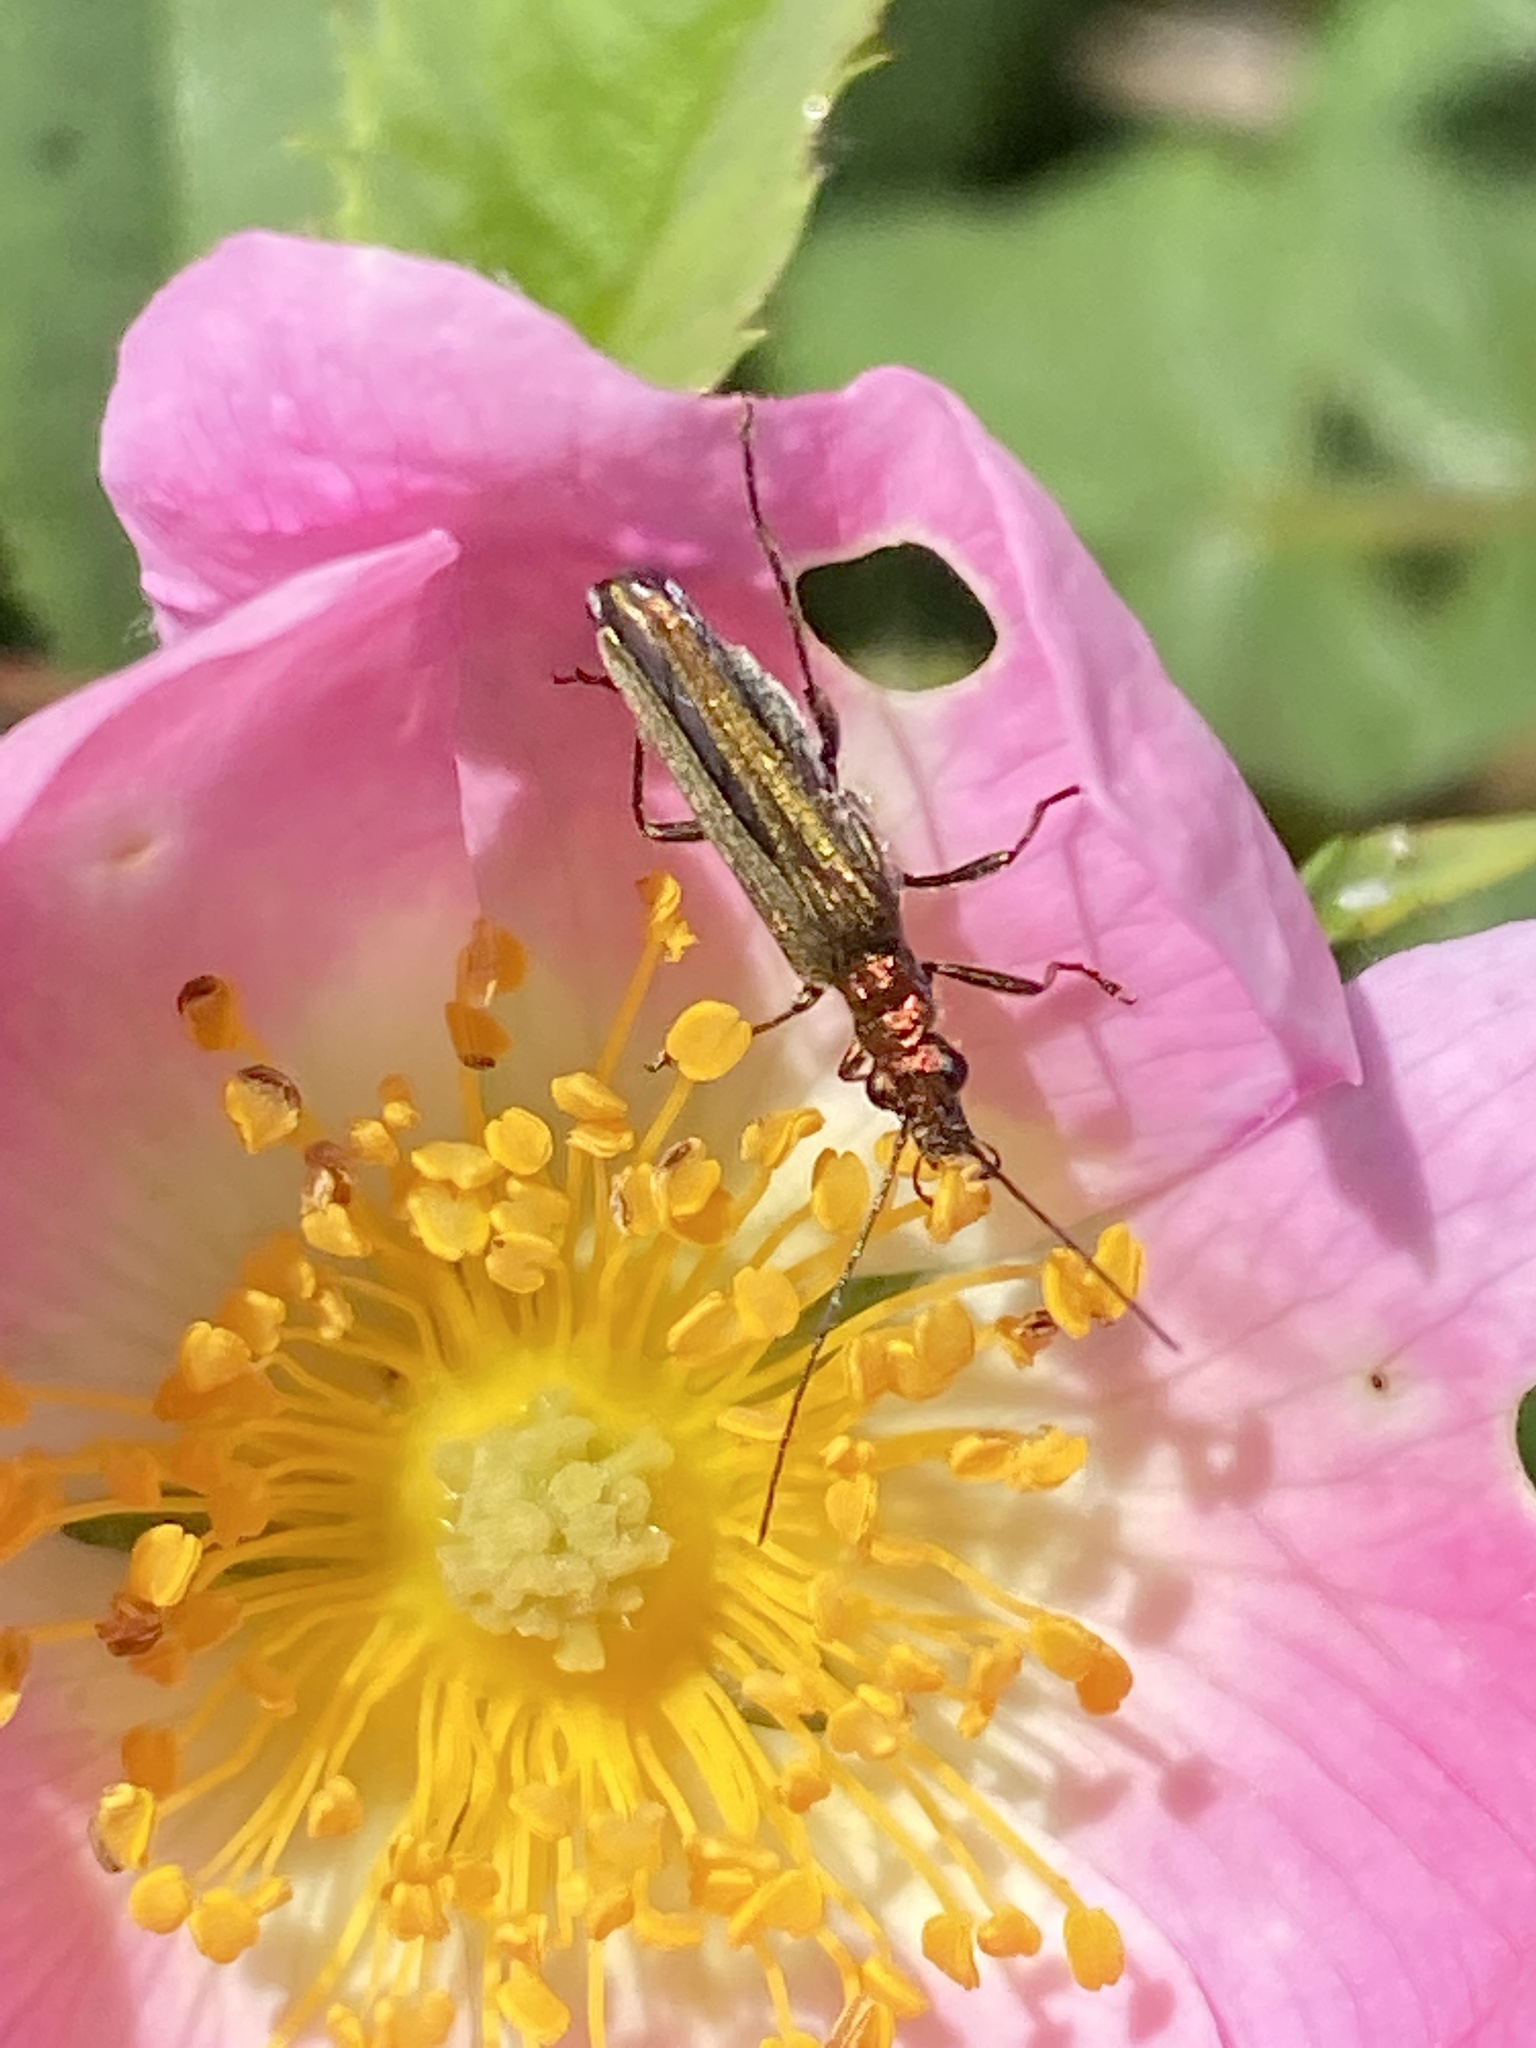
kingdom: Animalia
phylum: Arthropoda
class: Insecta
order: Coleoptera
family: Oedemeridae
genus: Oedemera
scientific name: Oedemera nobilis
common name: Swollen-thighed beetle
